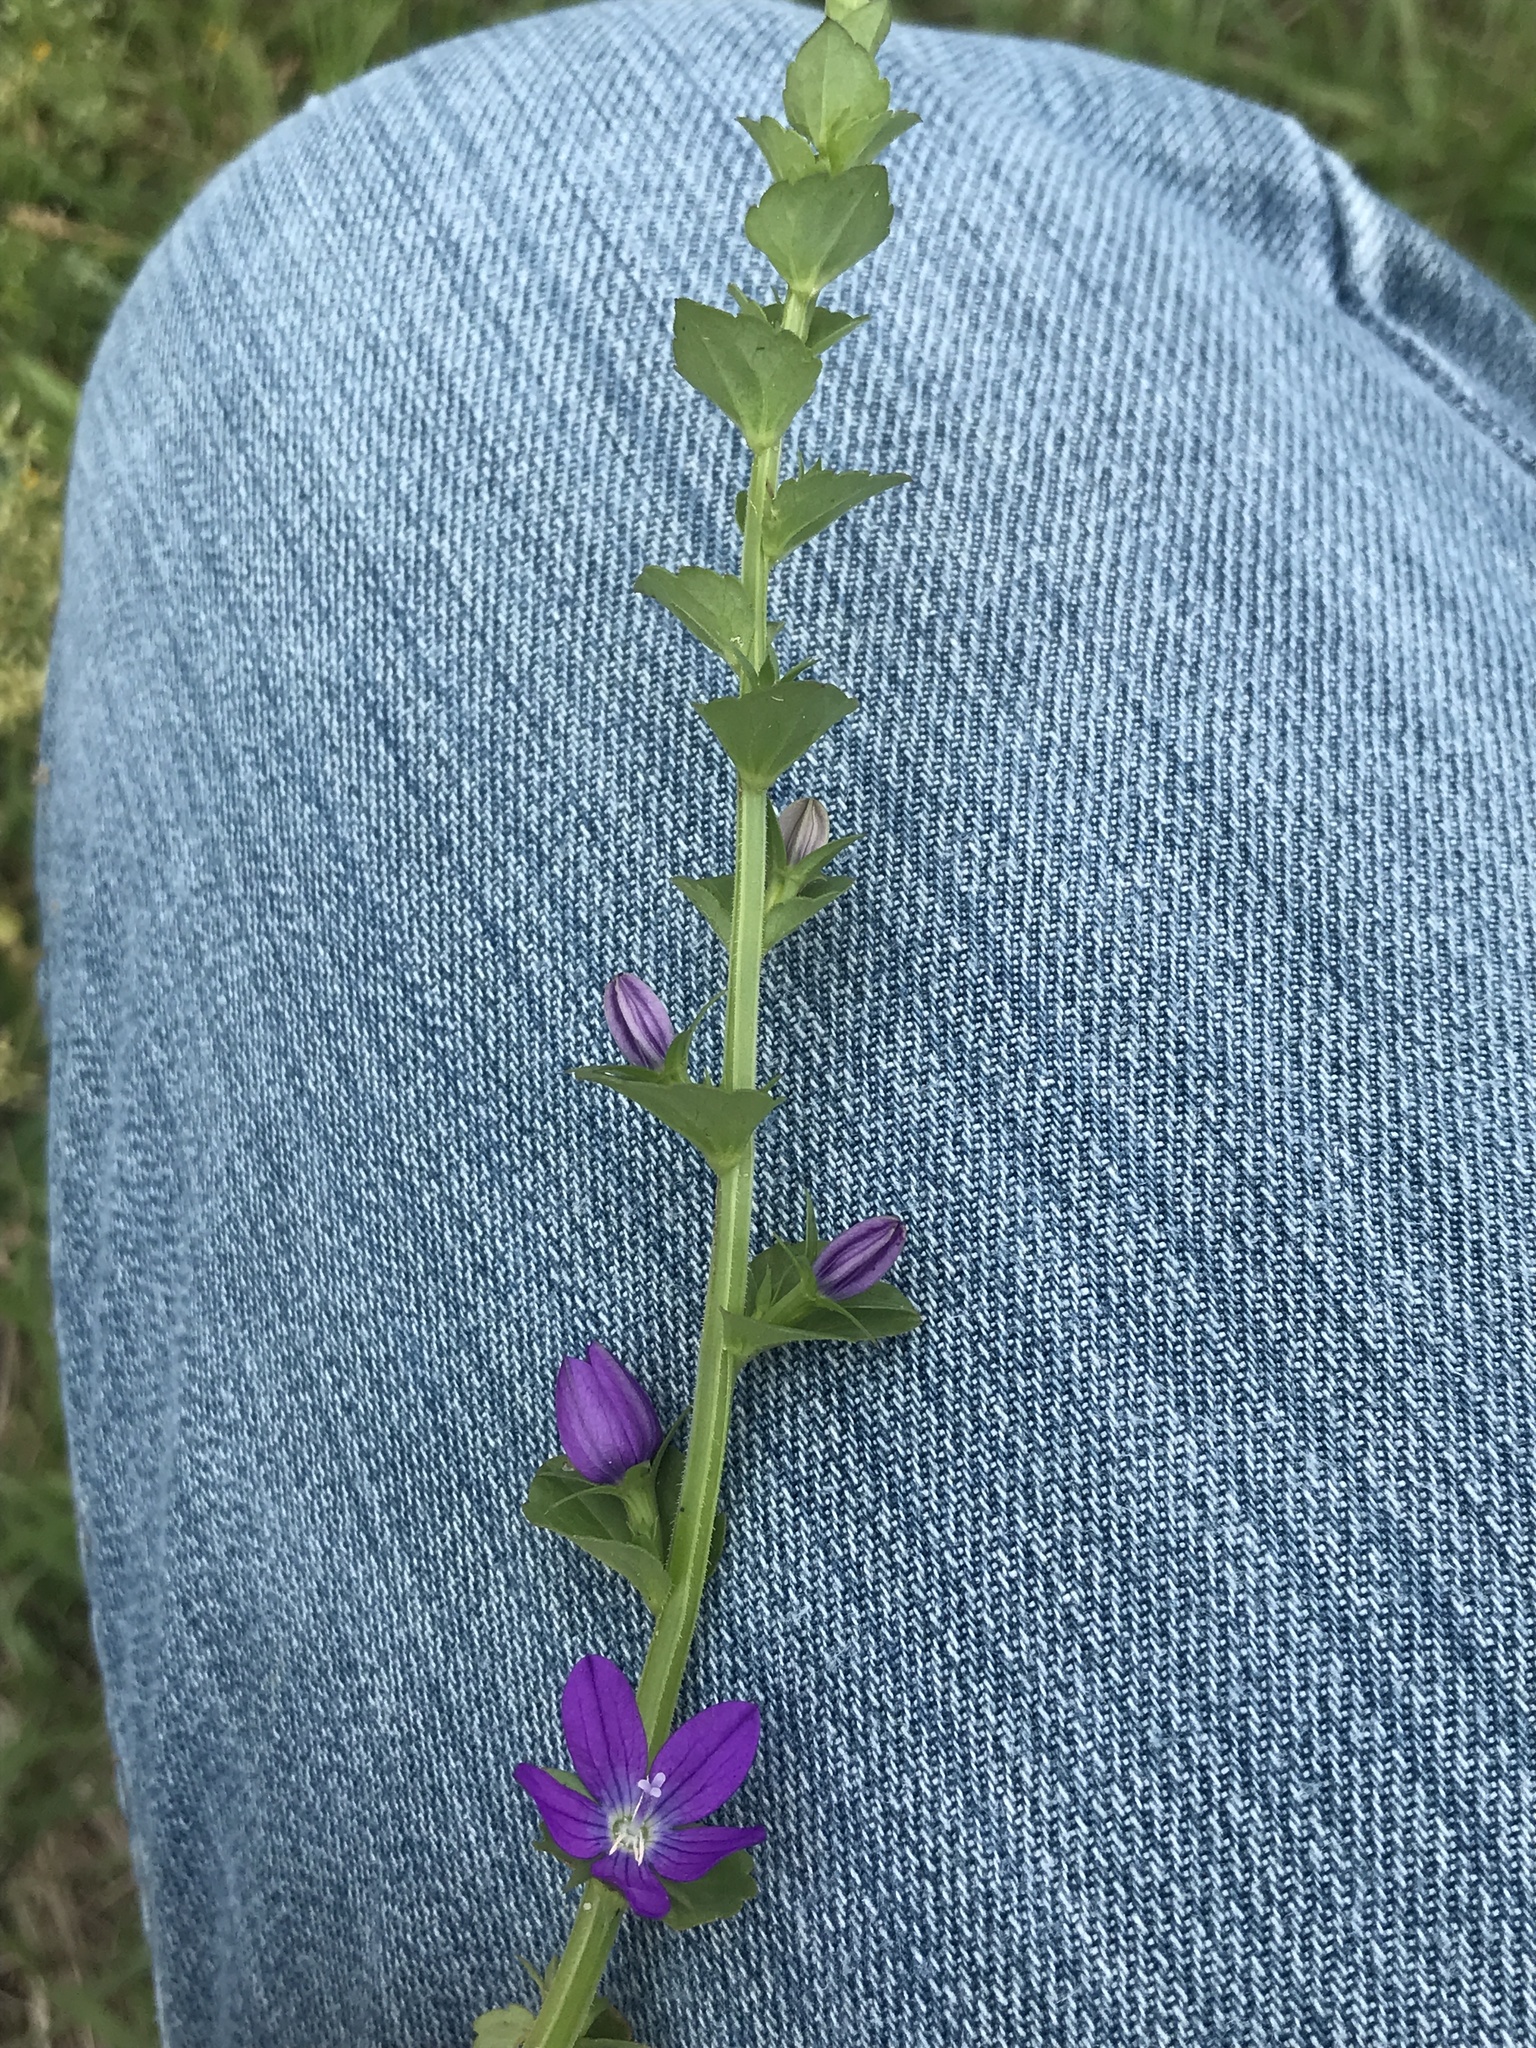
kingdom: Plantae
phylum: Tracheophyta
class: Magnoliopsida
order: Asterales
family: Campanulaceae
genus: Triodanis
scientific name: Triodanis perfoliata
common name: Clasping venus' looking-glass
